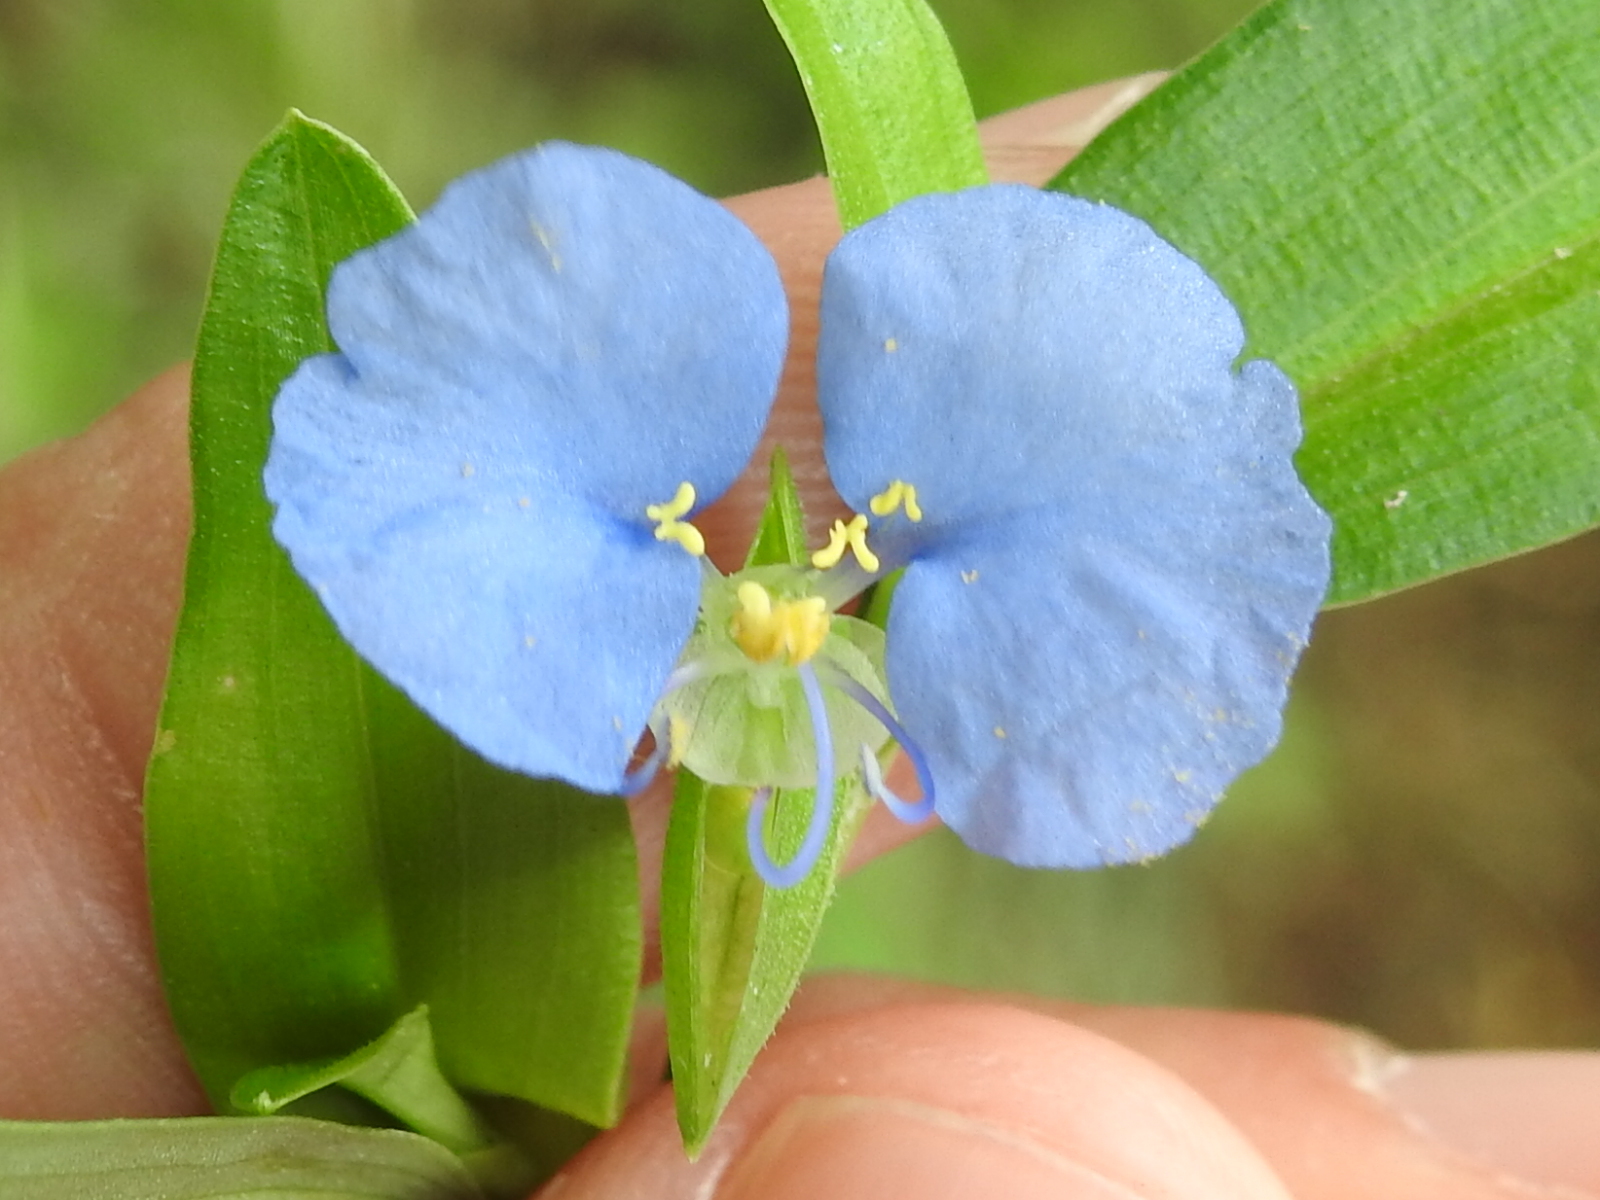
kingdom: Plantae
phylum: Tracheophyta
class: Liliopsida
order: Commelinales
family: Commelinaceae
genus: Commelina
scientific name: Commelina erecta
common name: Blousel blommetjie
